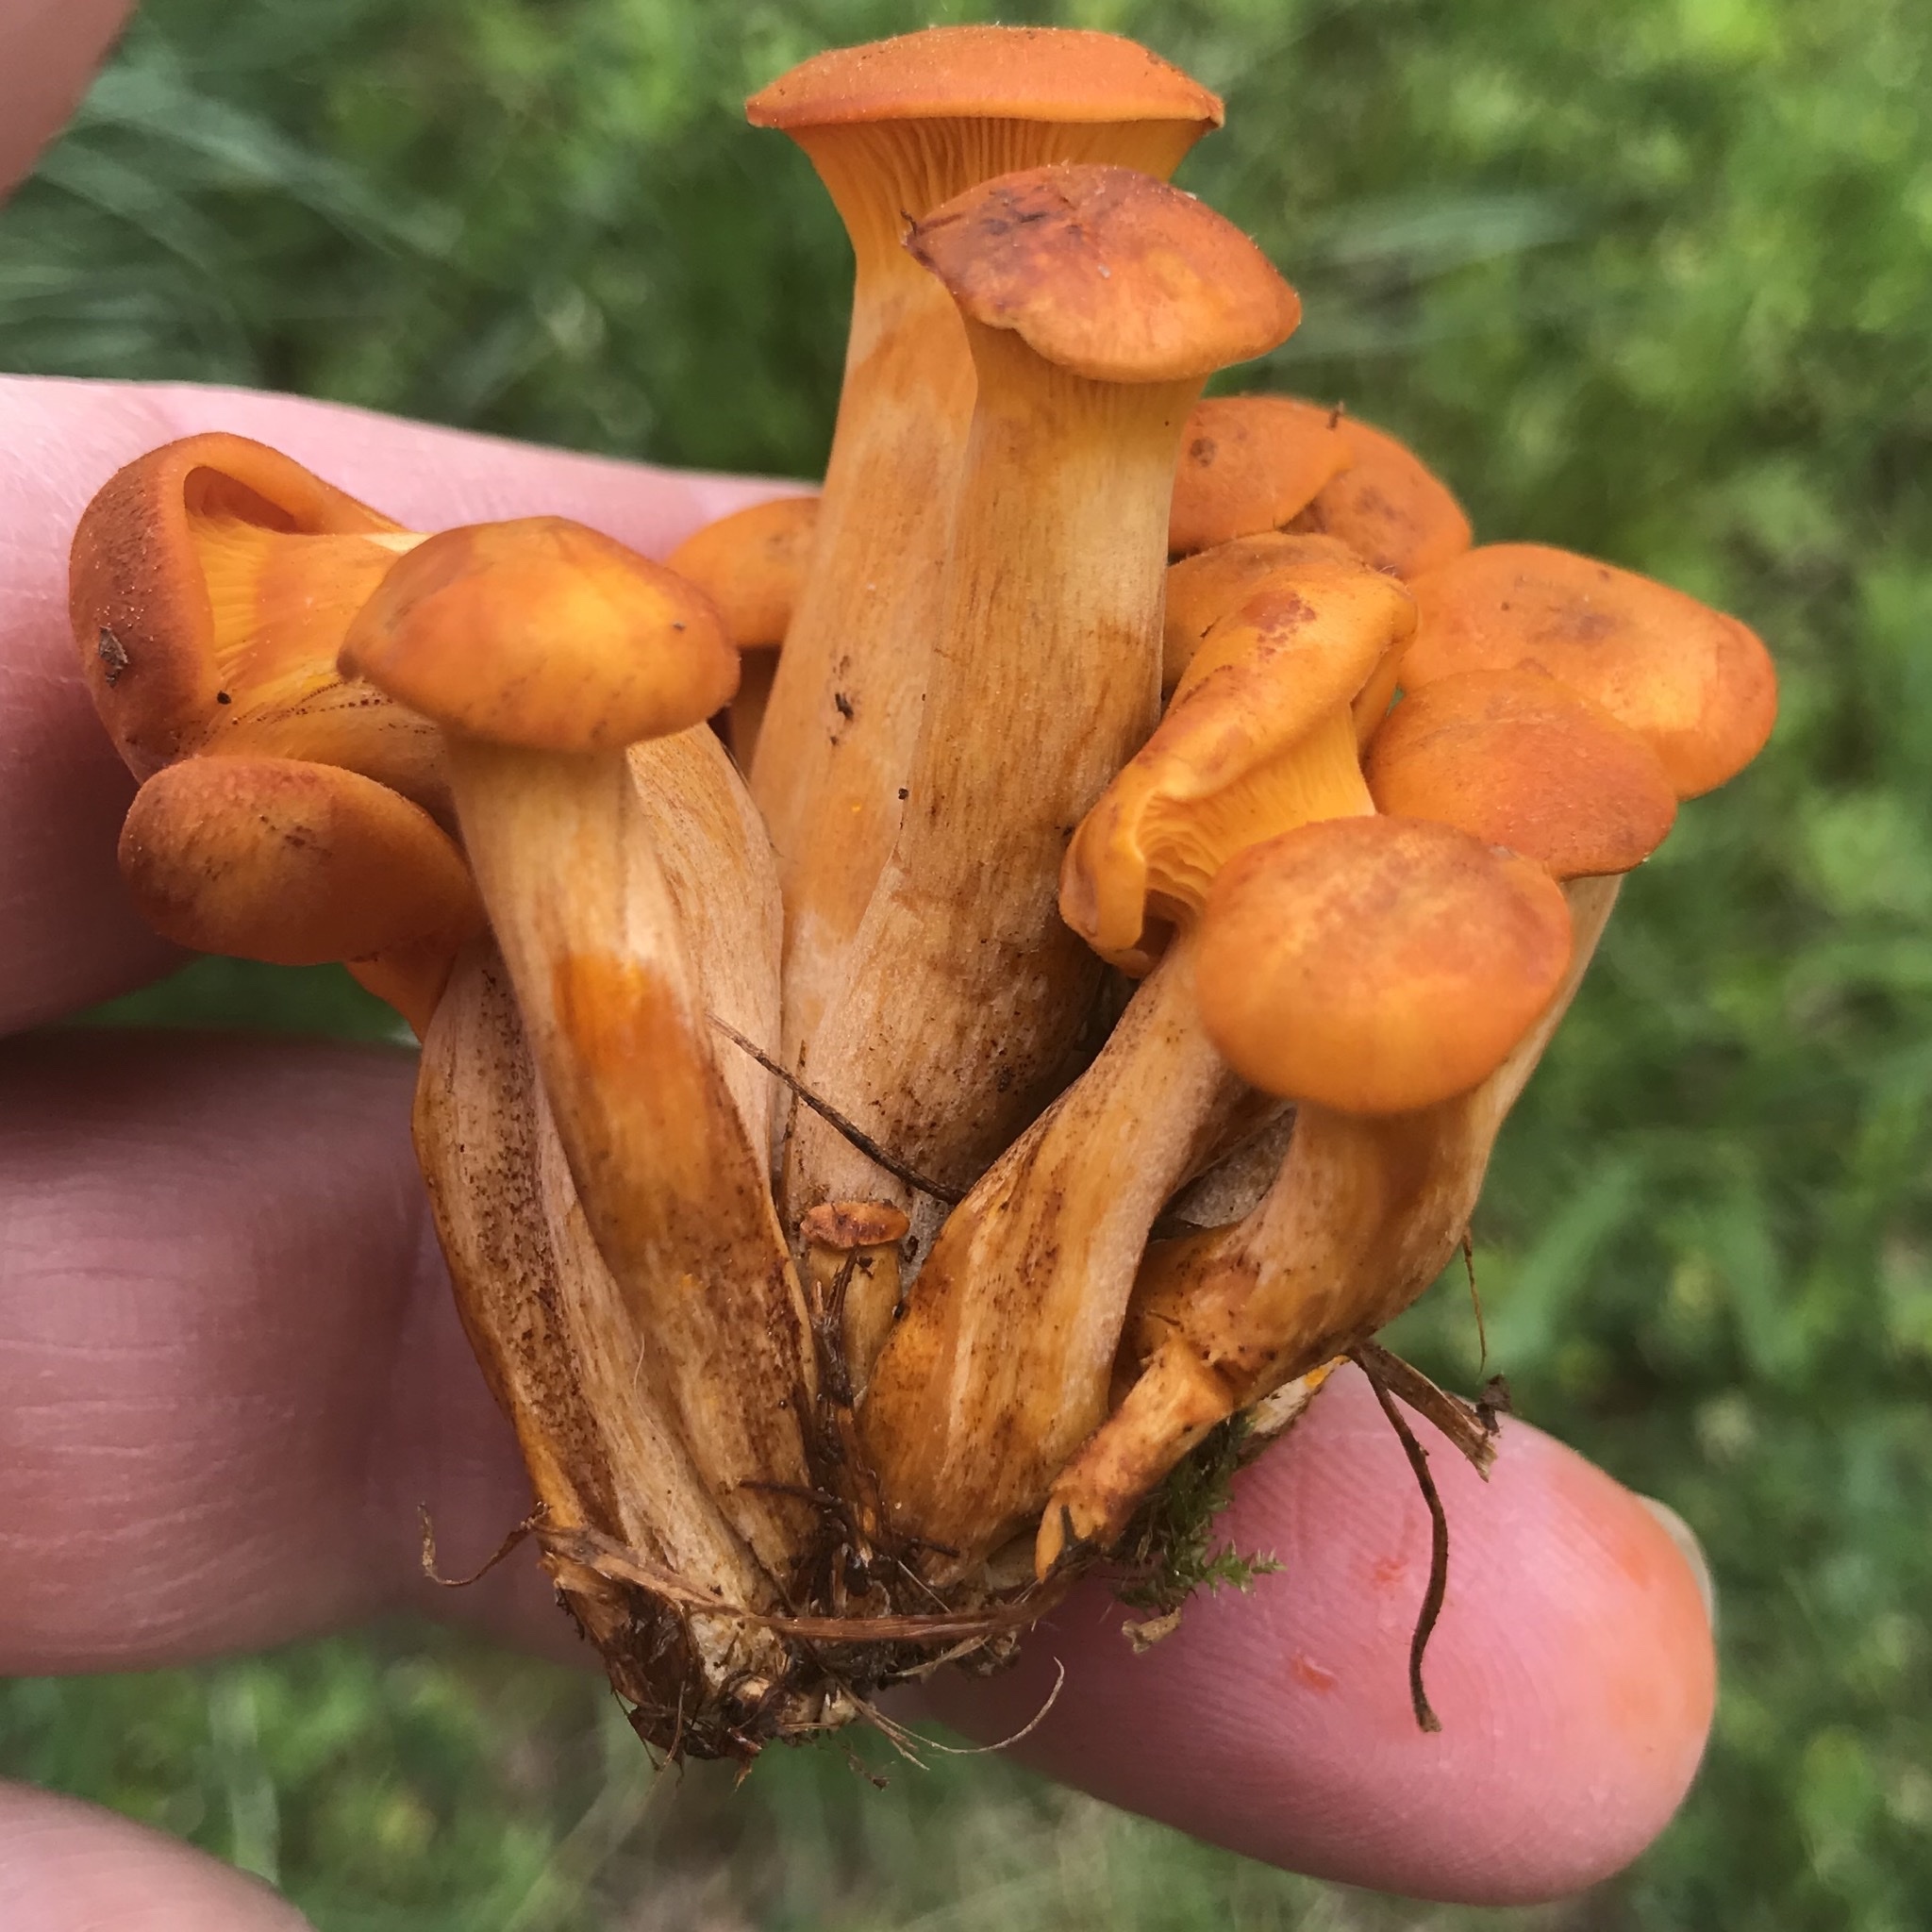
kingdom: Fungi
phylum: Basidiomycota
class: Agaricomycetes
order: Agaricales
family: Omphalotaceae
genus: Omphalotus
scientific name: Omphalotus illudens
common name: Jack o lantern
